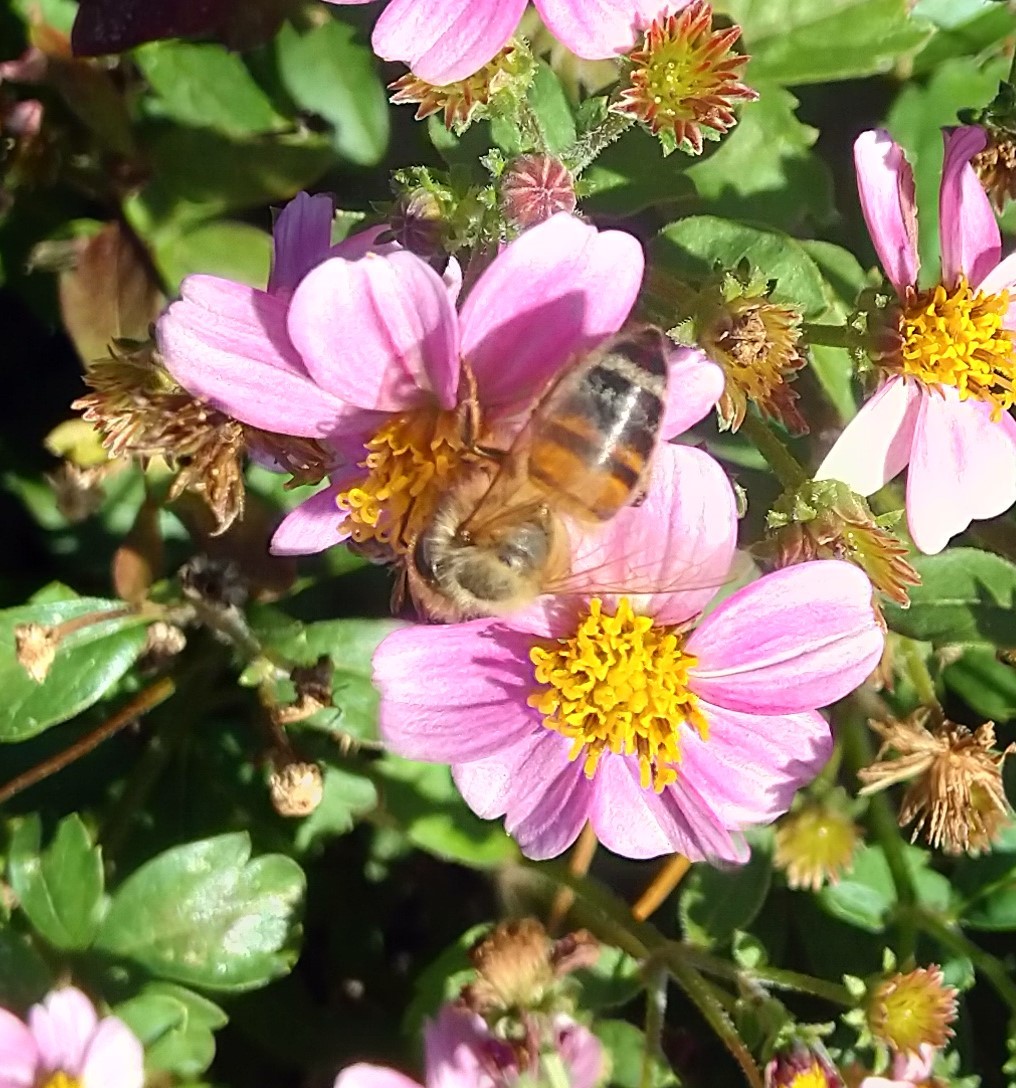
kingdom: Animalia
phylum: Arthropoda
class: Insecta
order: Hymenoptera
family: Apidae
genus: Apis
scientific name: Apis mellifera
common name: Honey bee
